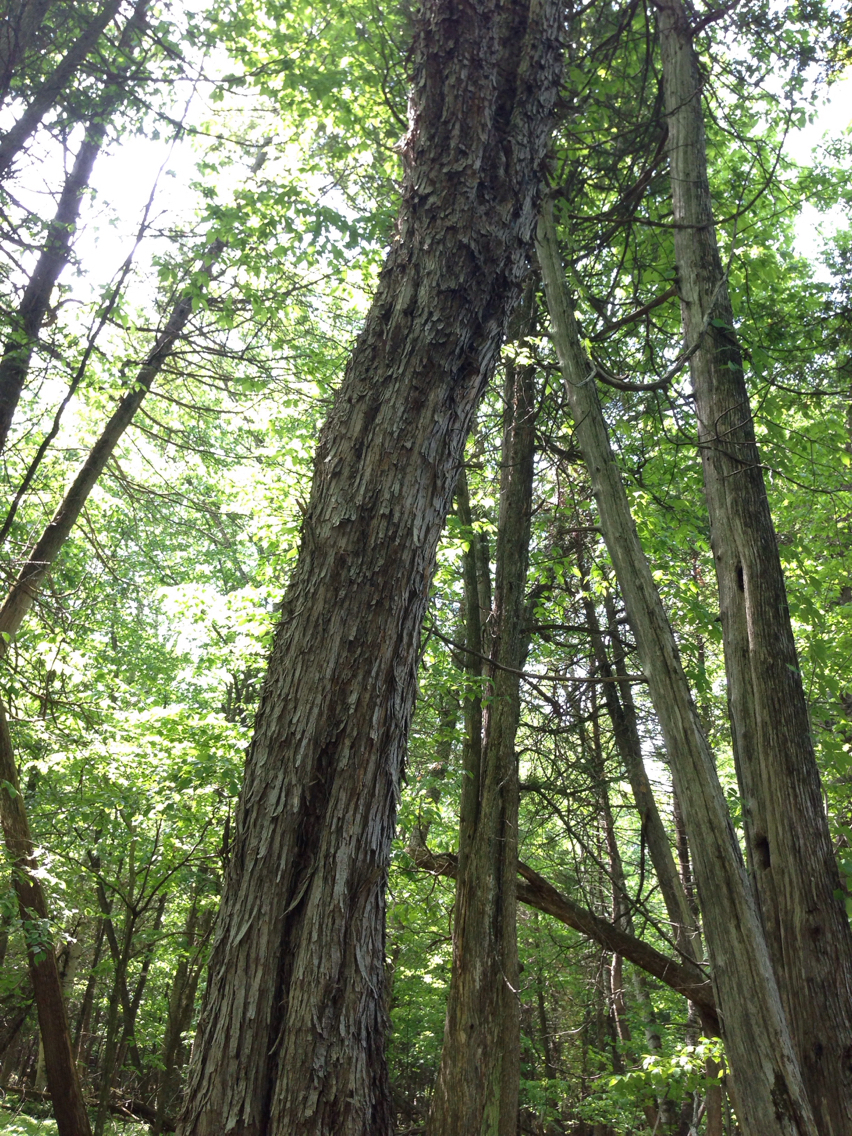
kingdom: Plantae
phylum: Tracheophyta
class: Magnoliopsida
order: Fagales
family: Betulaceae
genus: Ostrya
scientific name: Ostrya virginiana
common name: Ironwood
